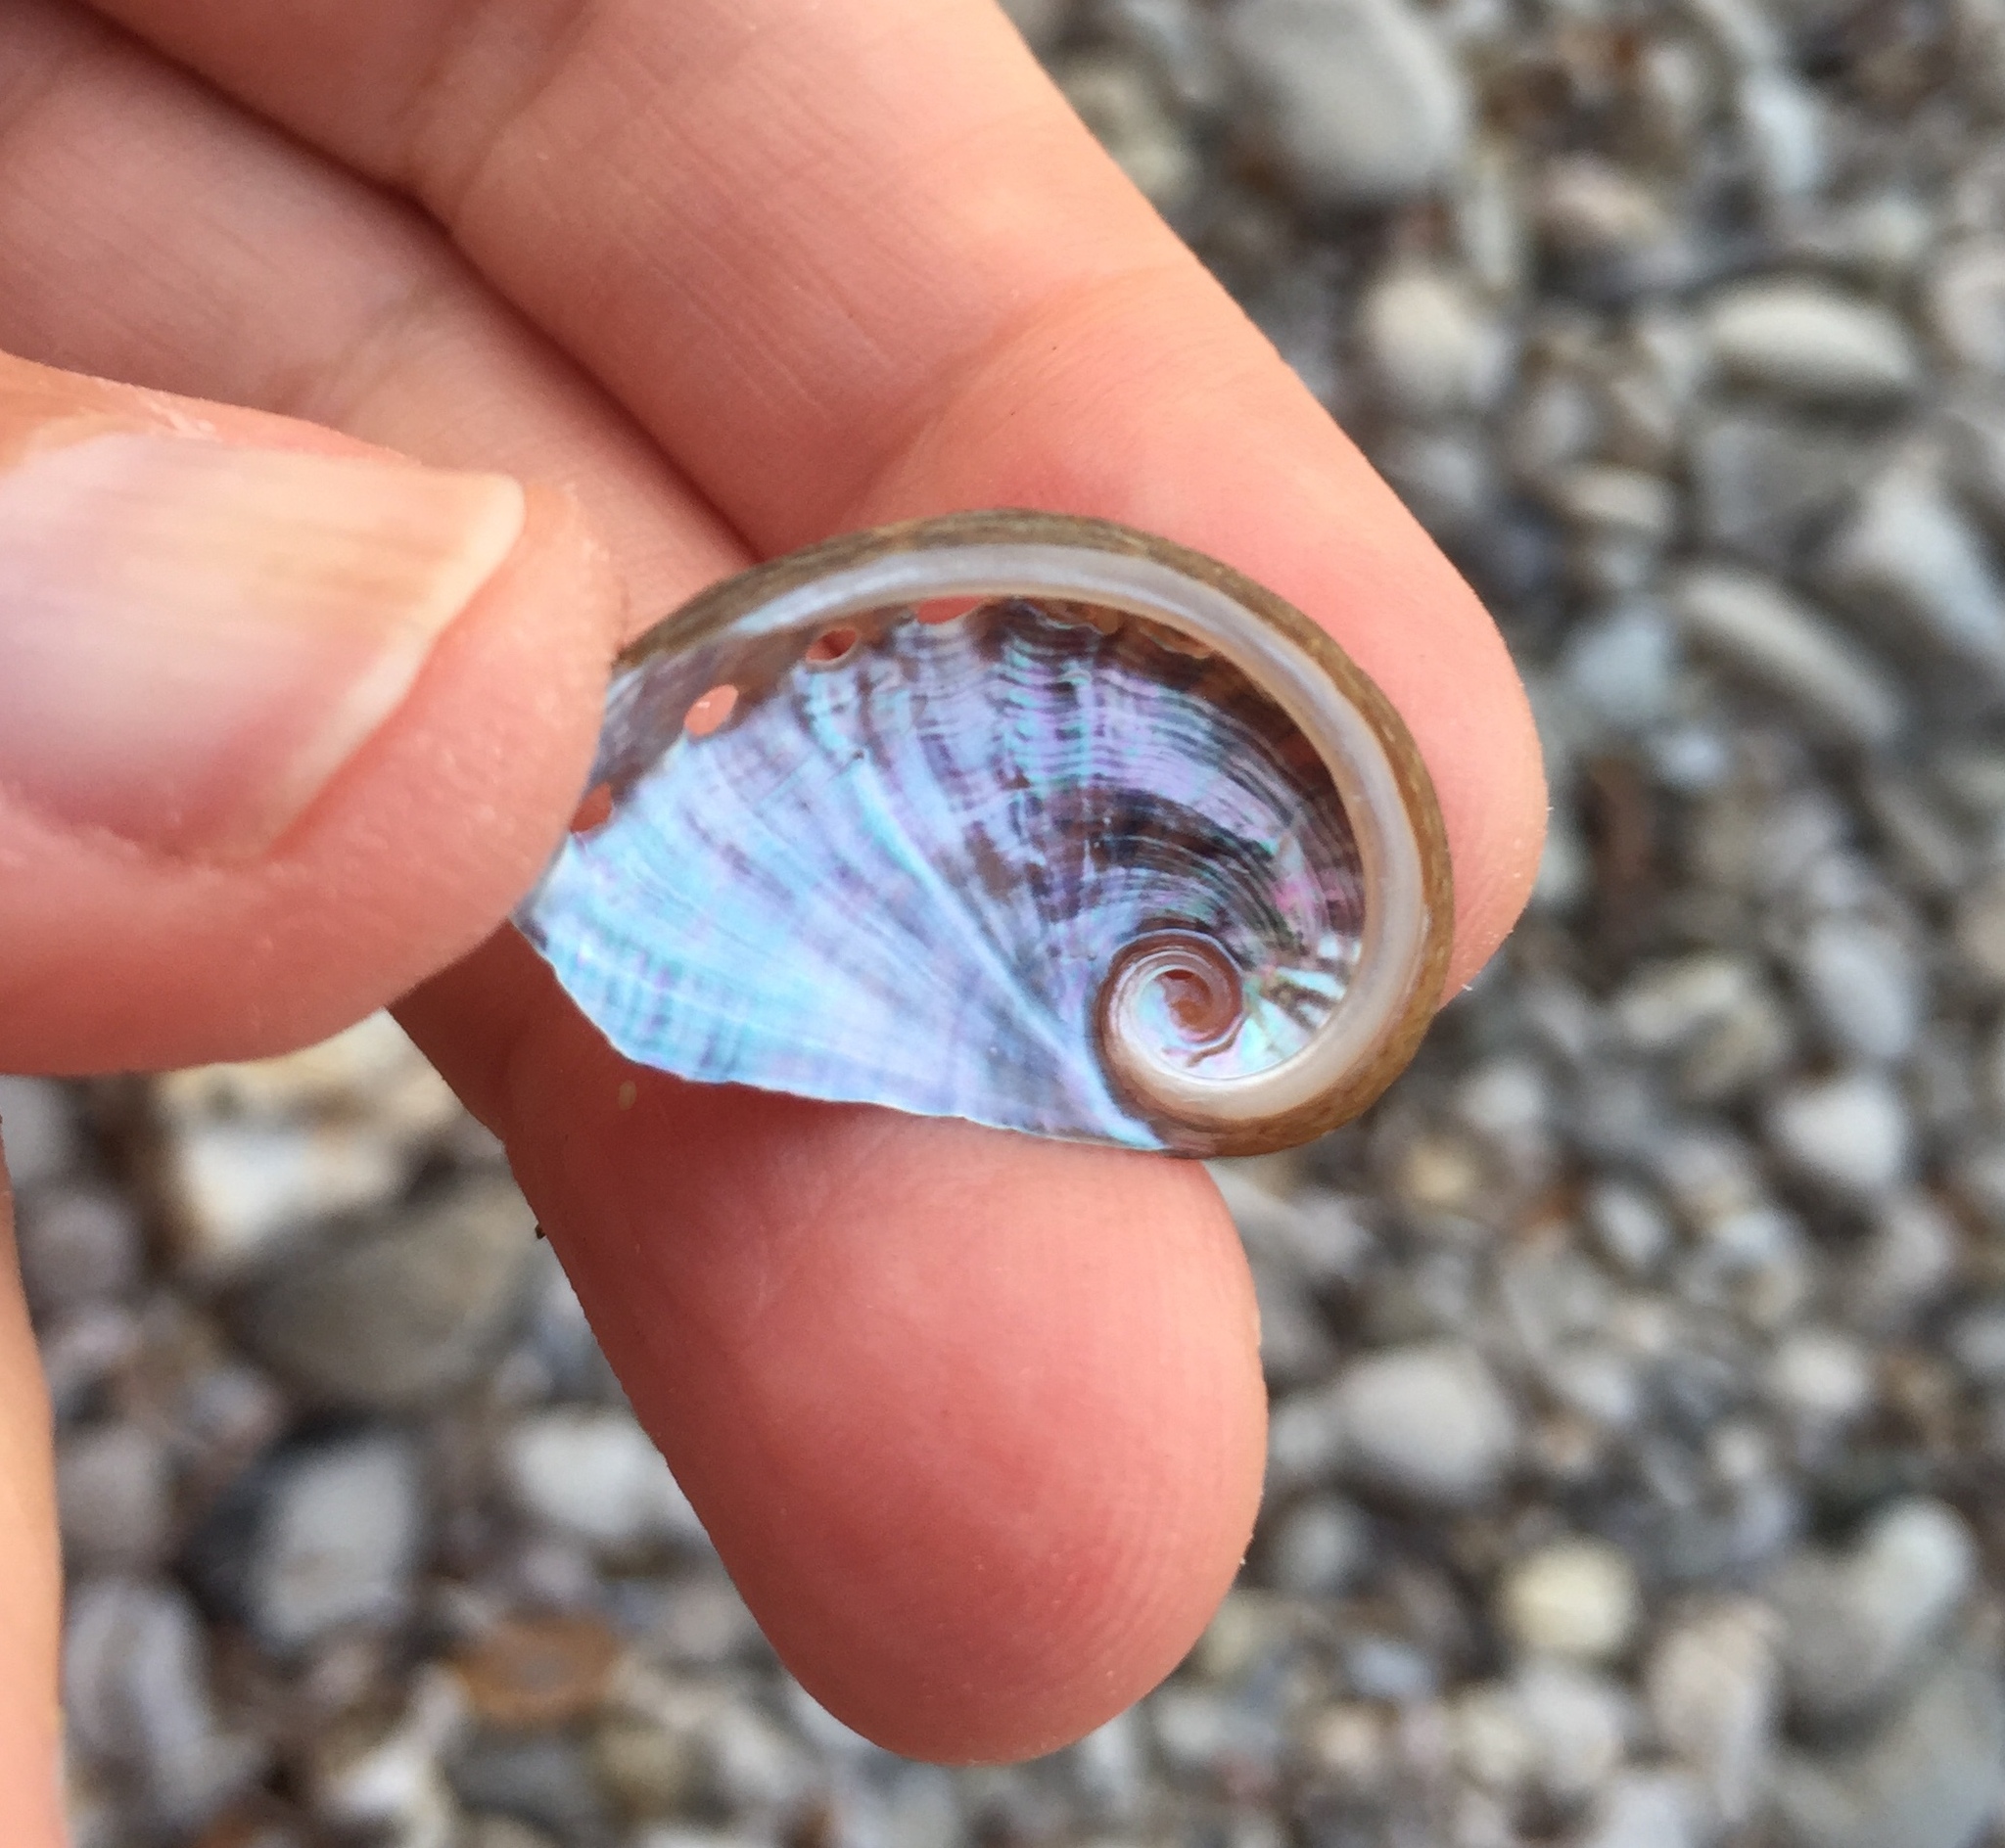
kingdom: Animalia
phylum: Mollusca
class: Gastropoda
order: Lepetellida
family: Haliotidae
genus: Haliotis
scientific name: Haliotis tuberculata
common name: Green ormer
